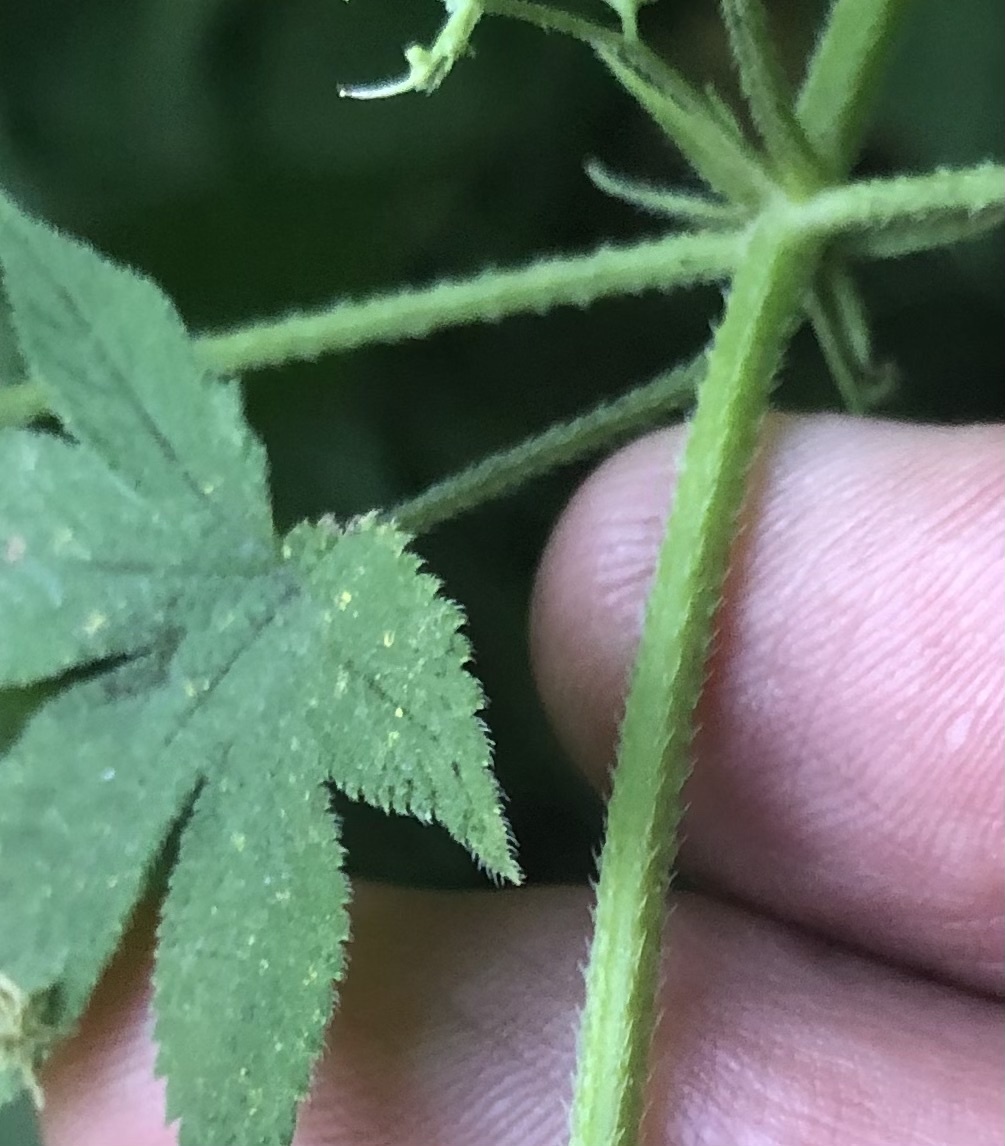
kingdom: Plantae
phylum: Tracheophyta
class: Magnoliopsida
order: Rosales
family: Cannabaceae
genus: Humulus
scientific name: Humulus scandens
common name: Japanese hop
